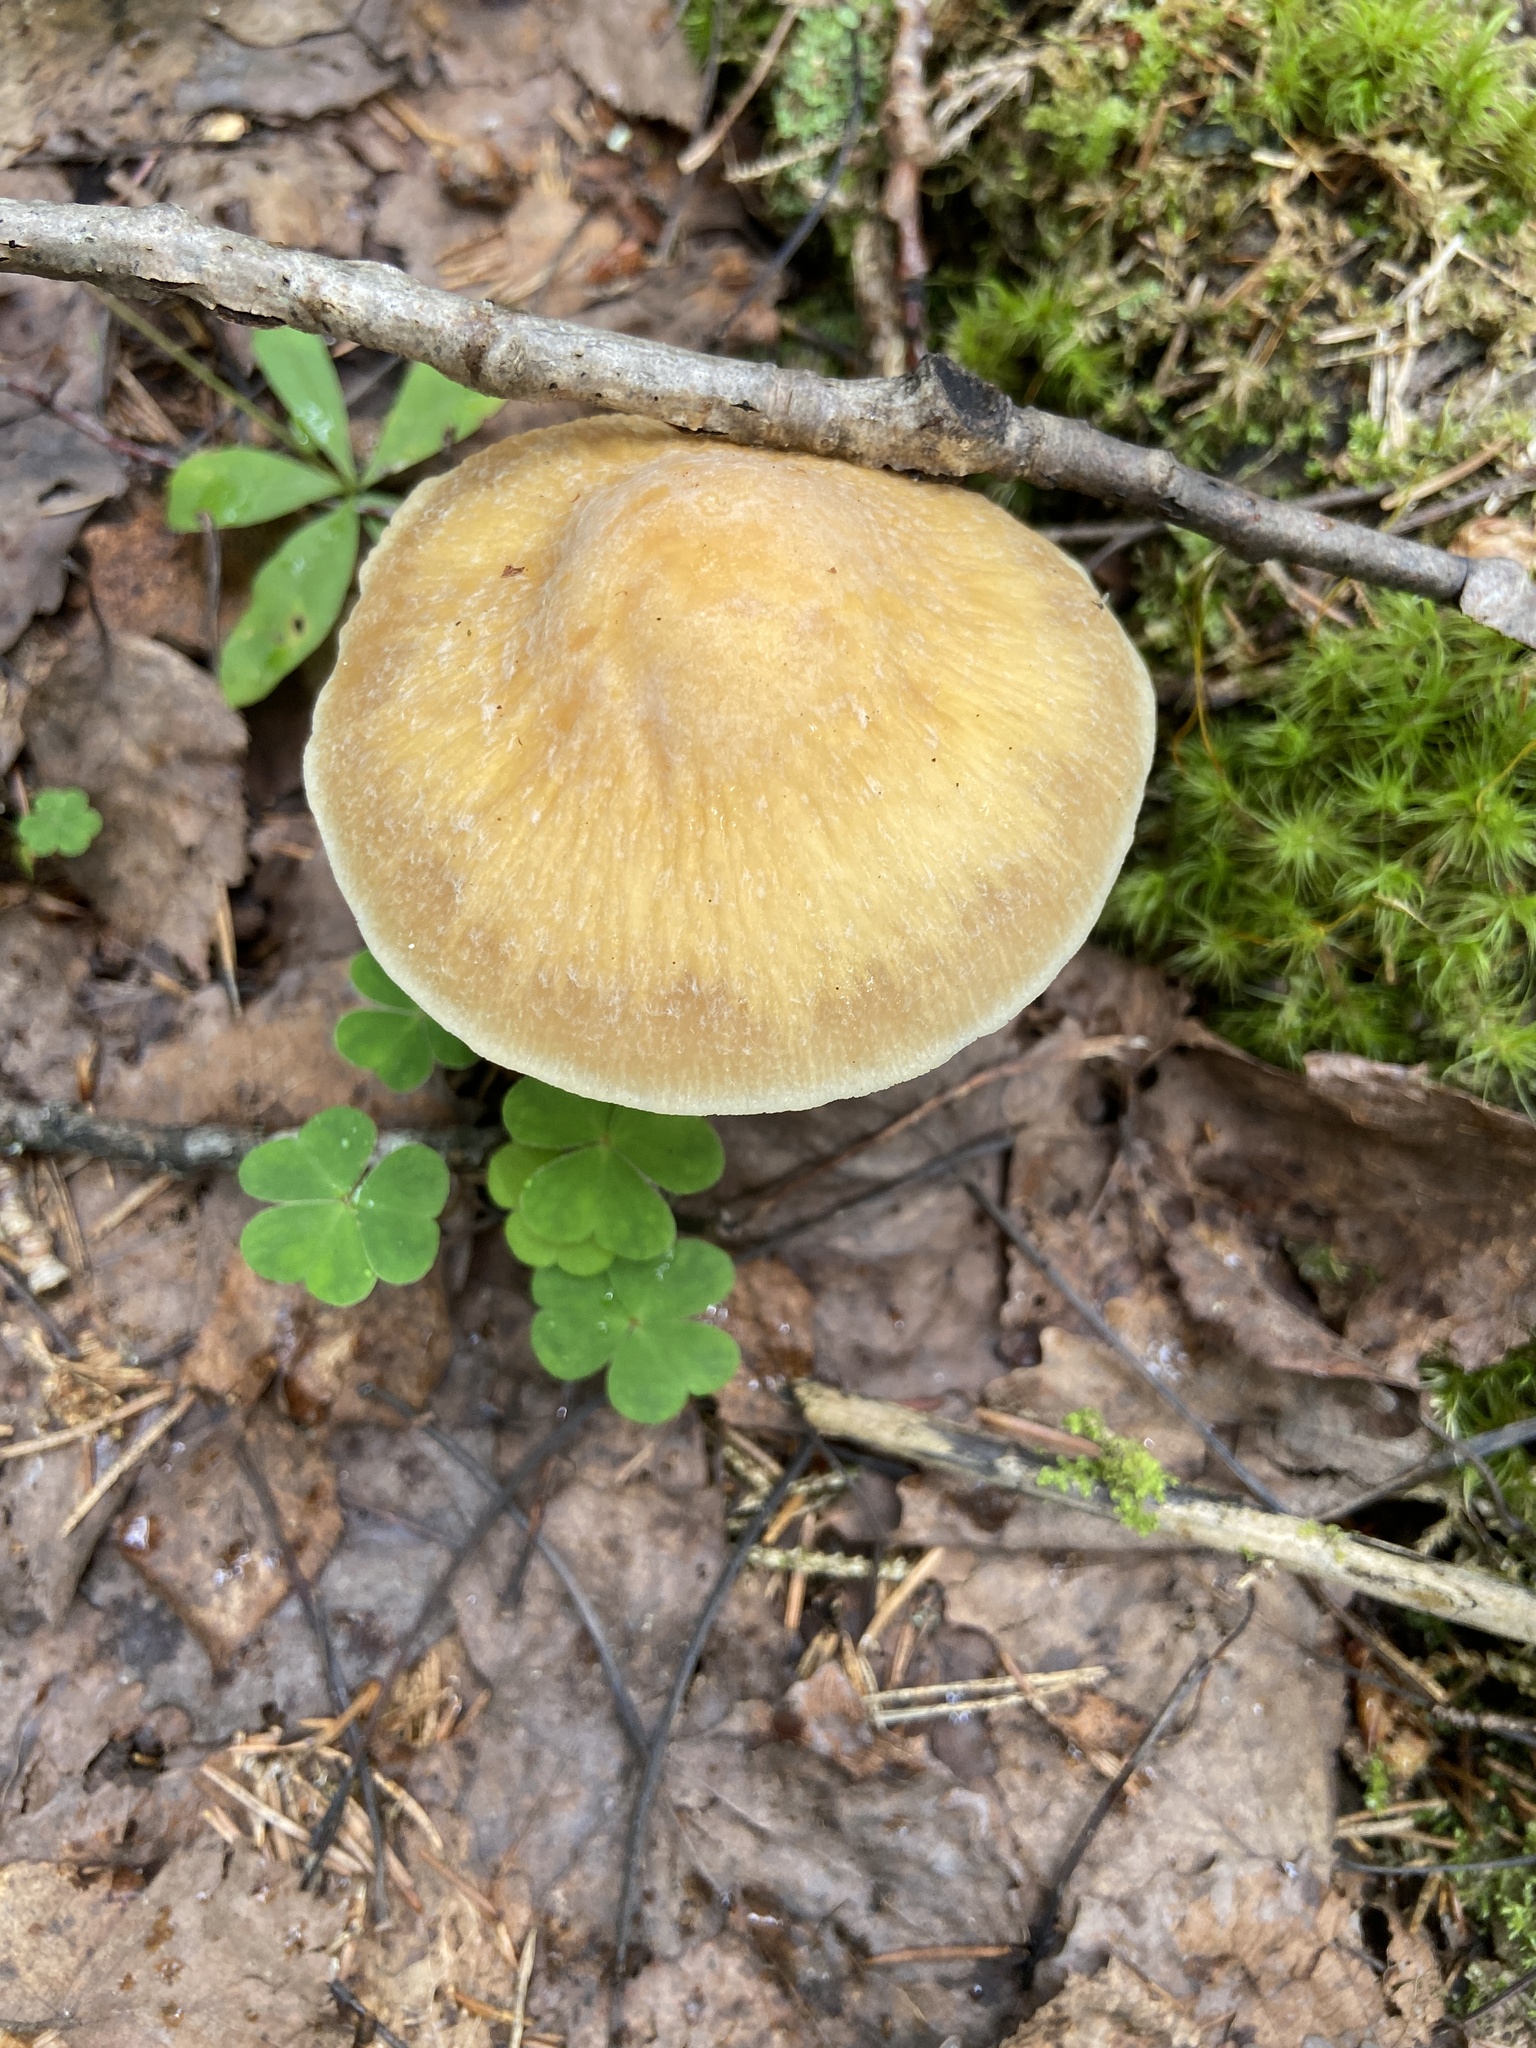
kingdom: Fungi
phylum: Basidiomycota
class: Agaricomycetes
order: Agaricales
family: Cortinariaceae
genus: Cortinarius
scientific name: Cortinarius caperatus
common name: The gypsy
